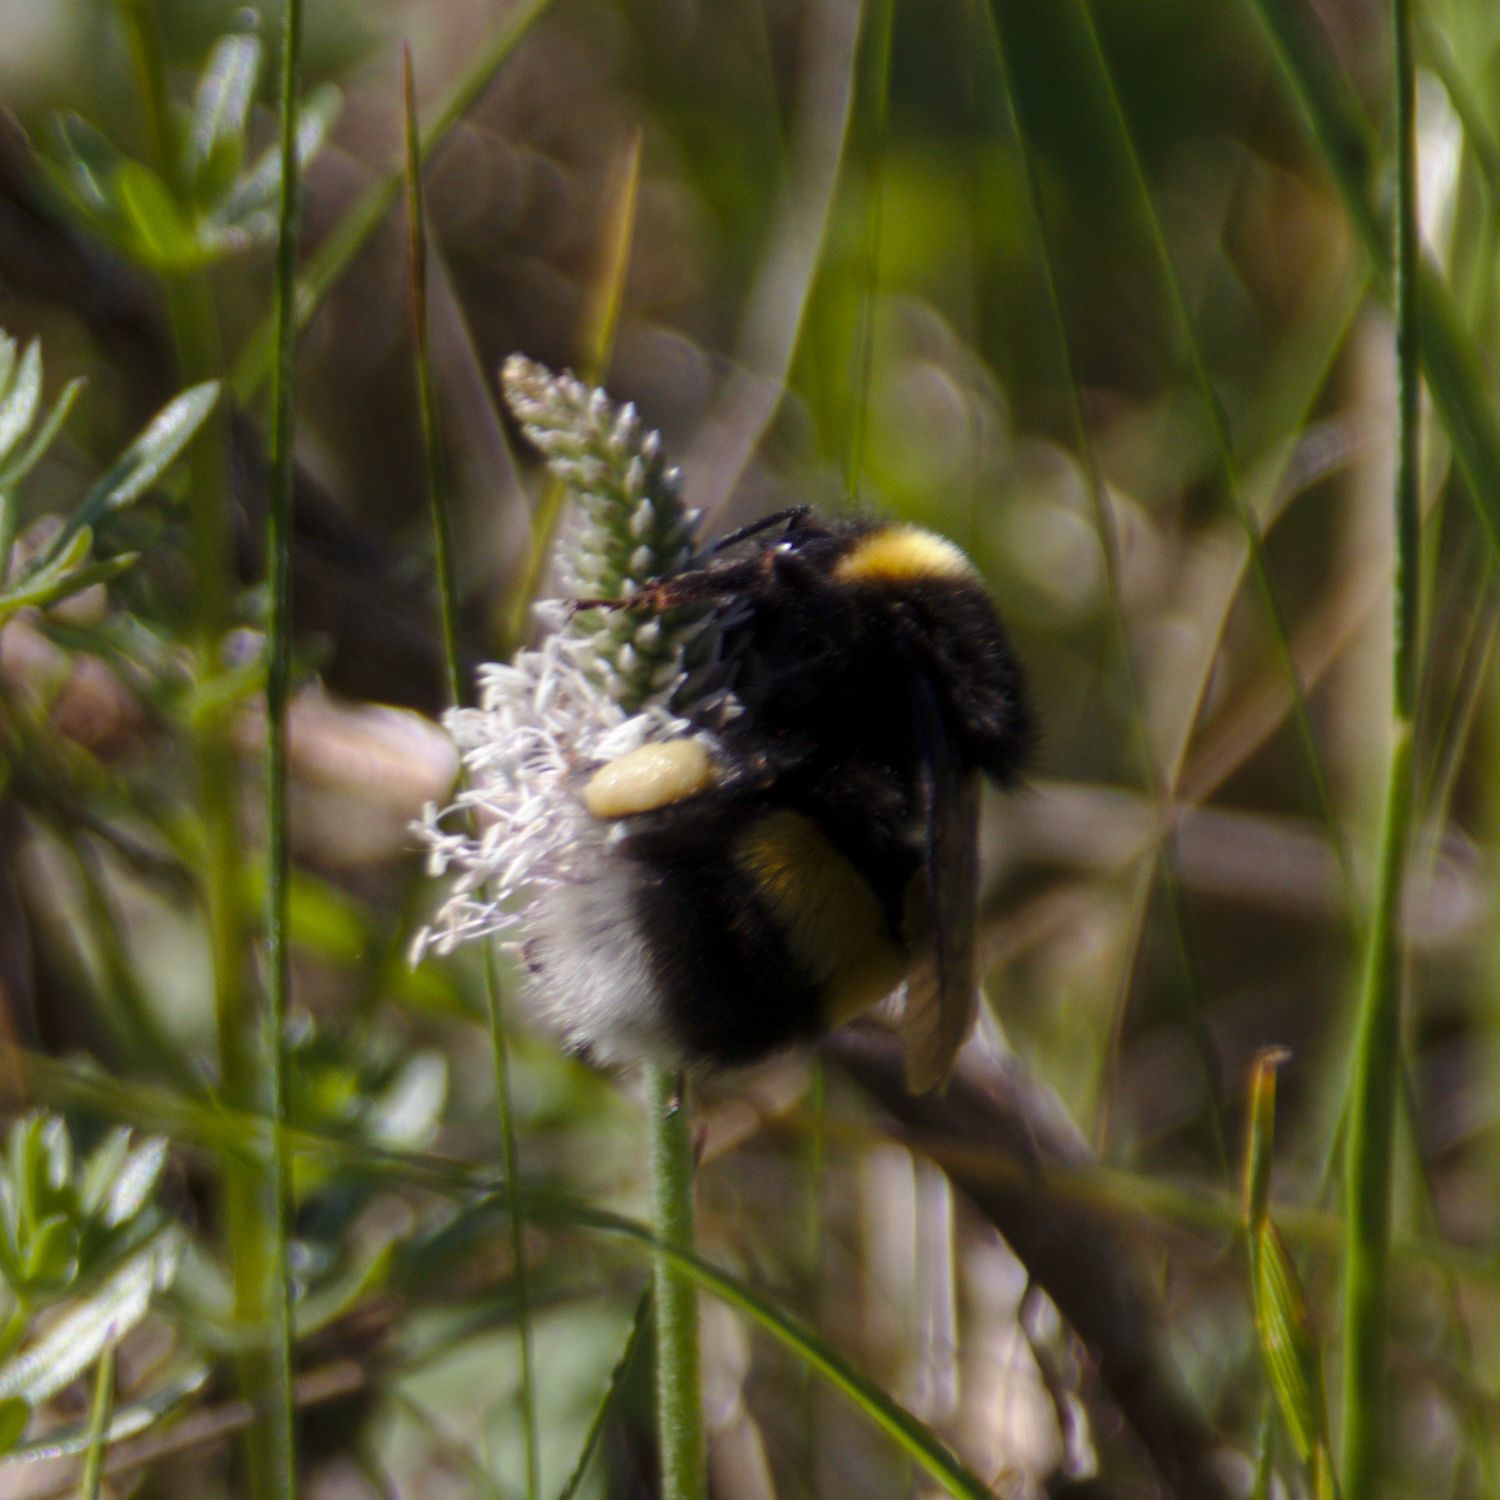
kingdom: Animalia
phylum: Arthropoda
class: Insecta
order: Hymenoptera
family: Apidae
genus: Bombus
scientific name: Bombus
